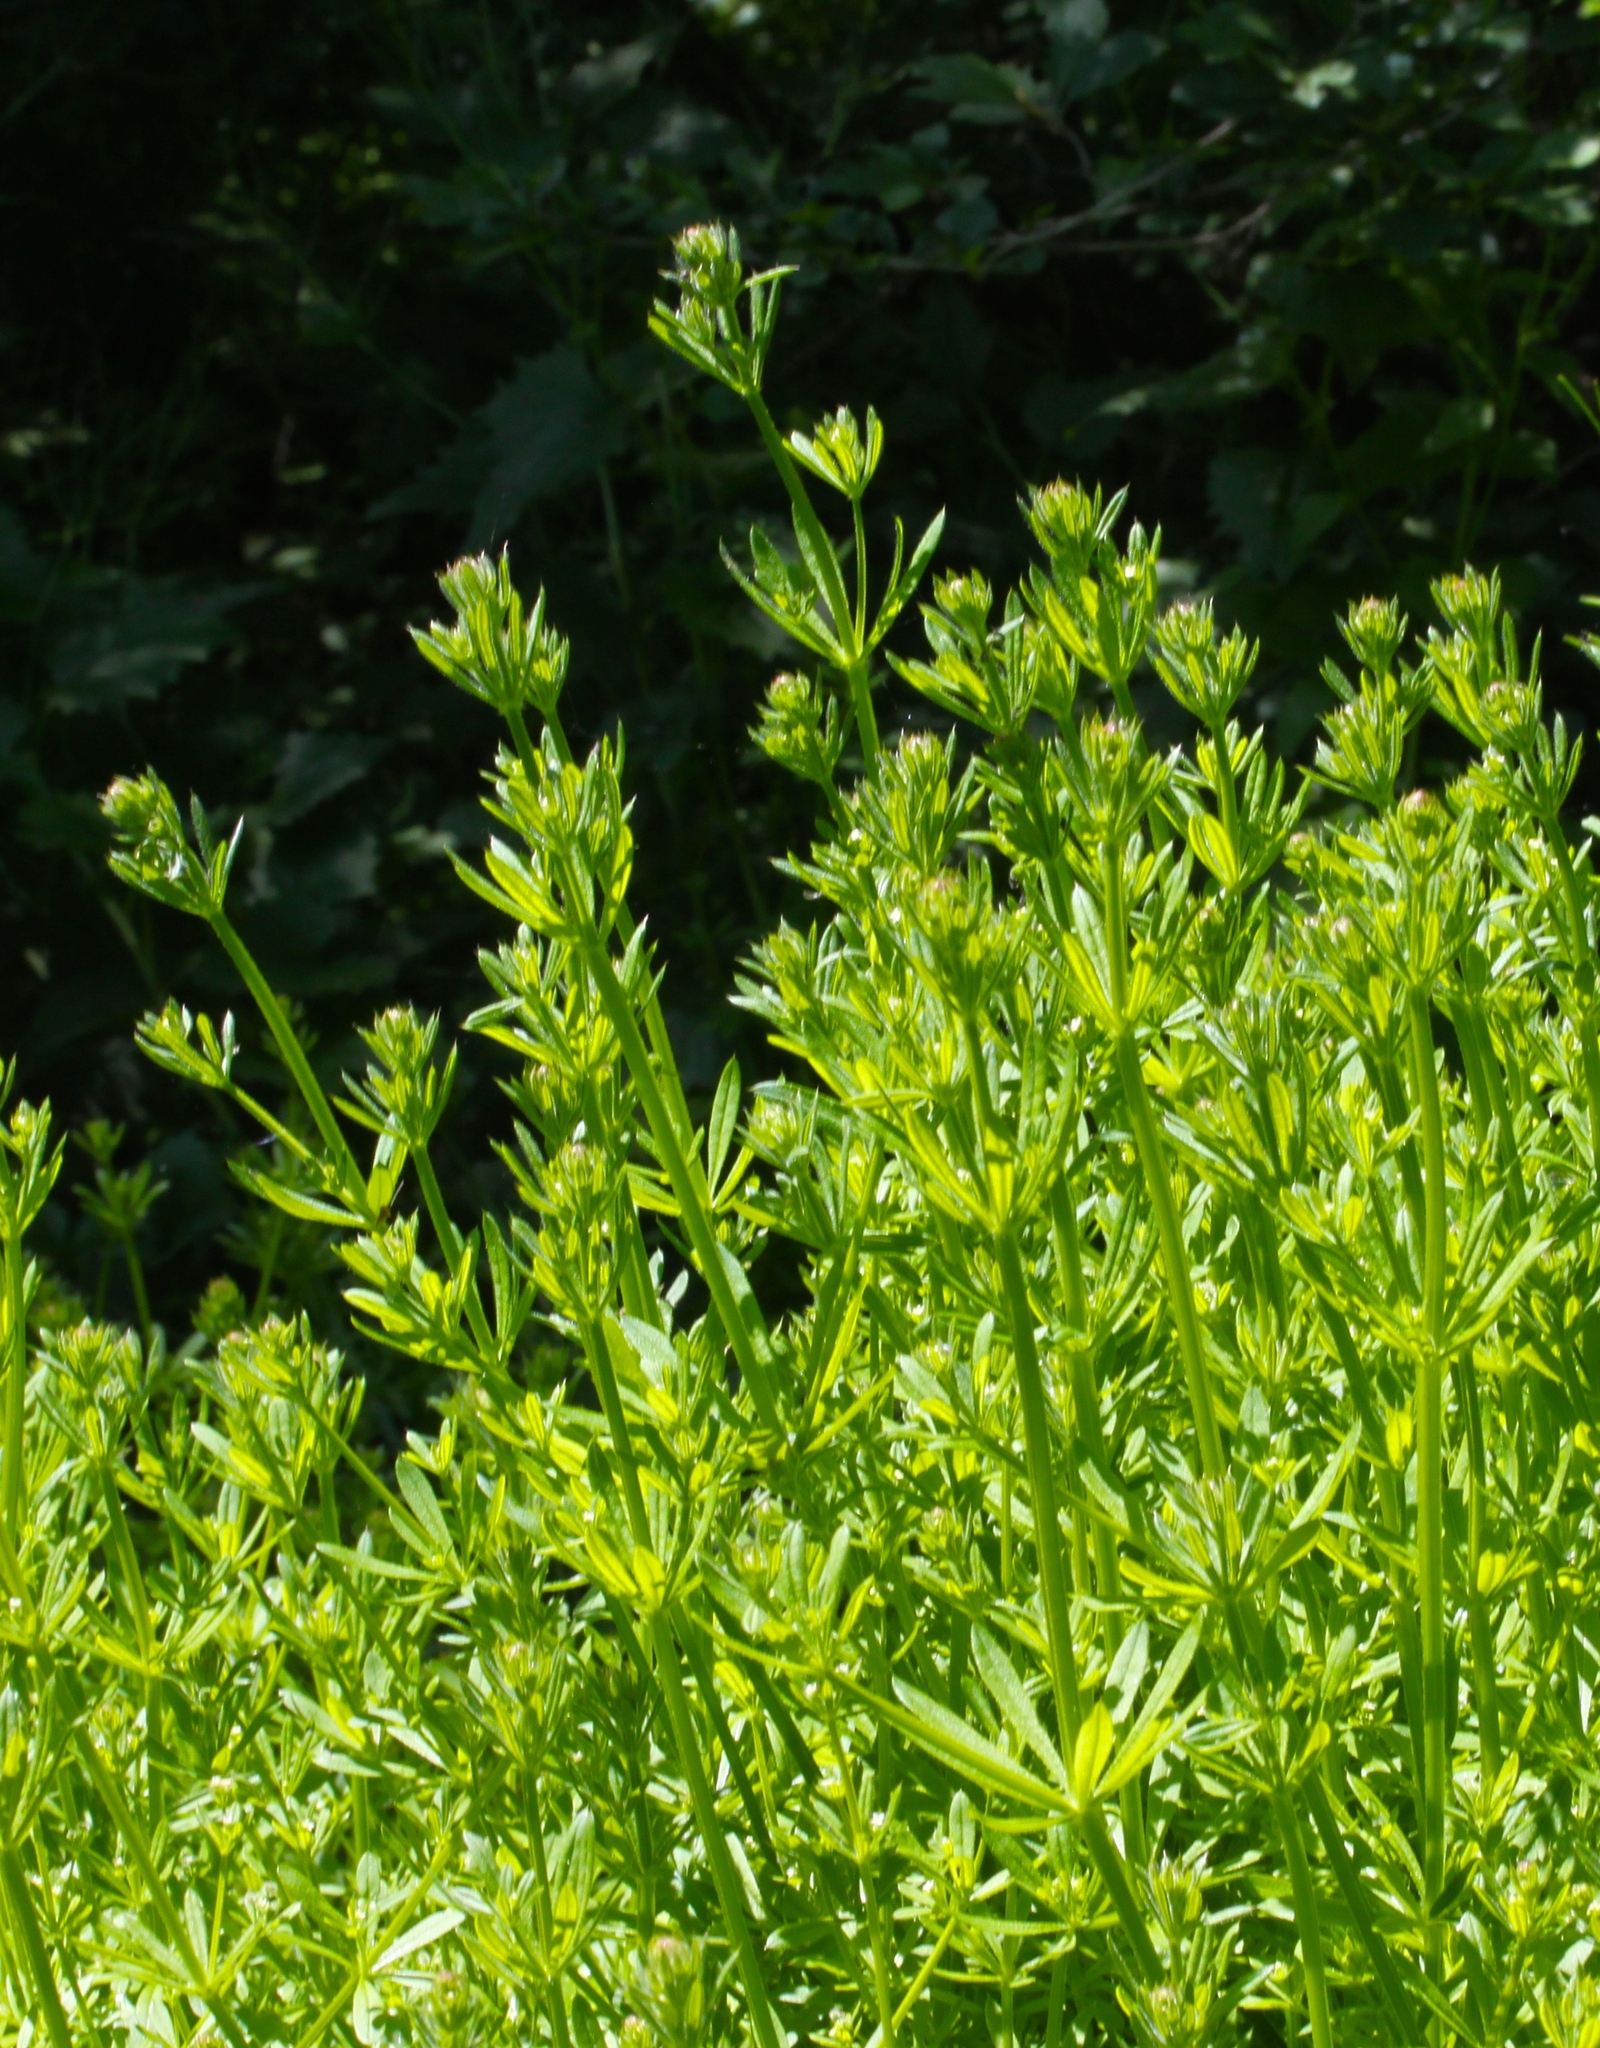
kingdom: Plantae
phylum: Tracheophyta
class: Magnoliopsida
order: Gentianales
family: Rubiaceae
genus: Galium
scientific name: Galium aparine
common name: Cleavers
